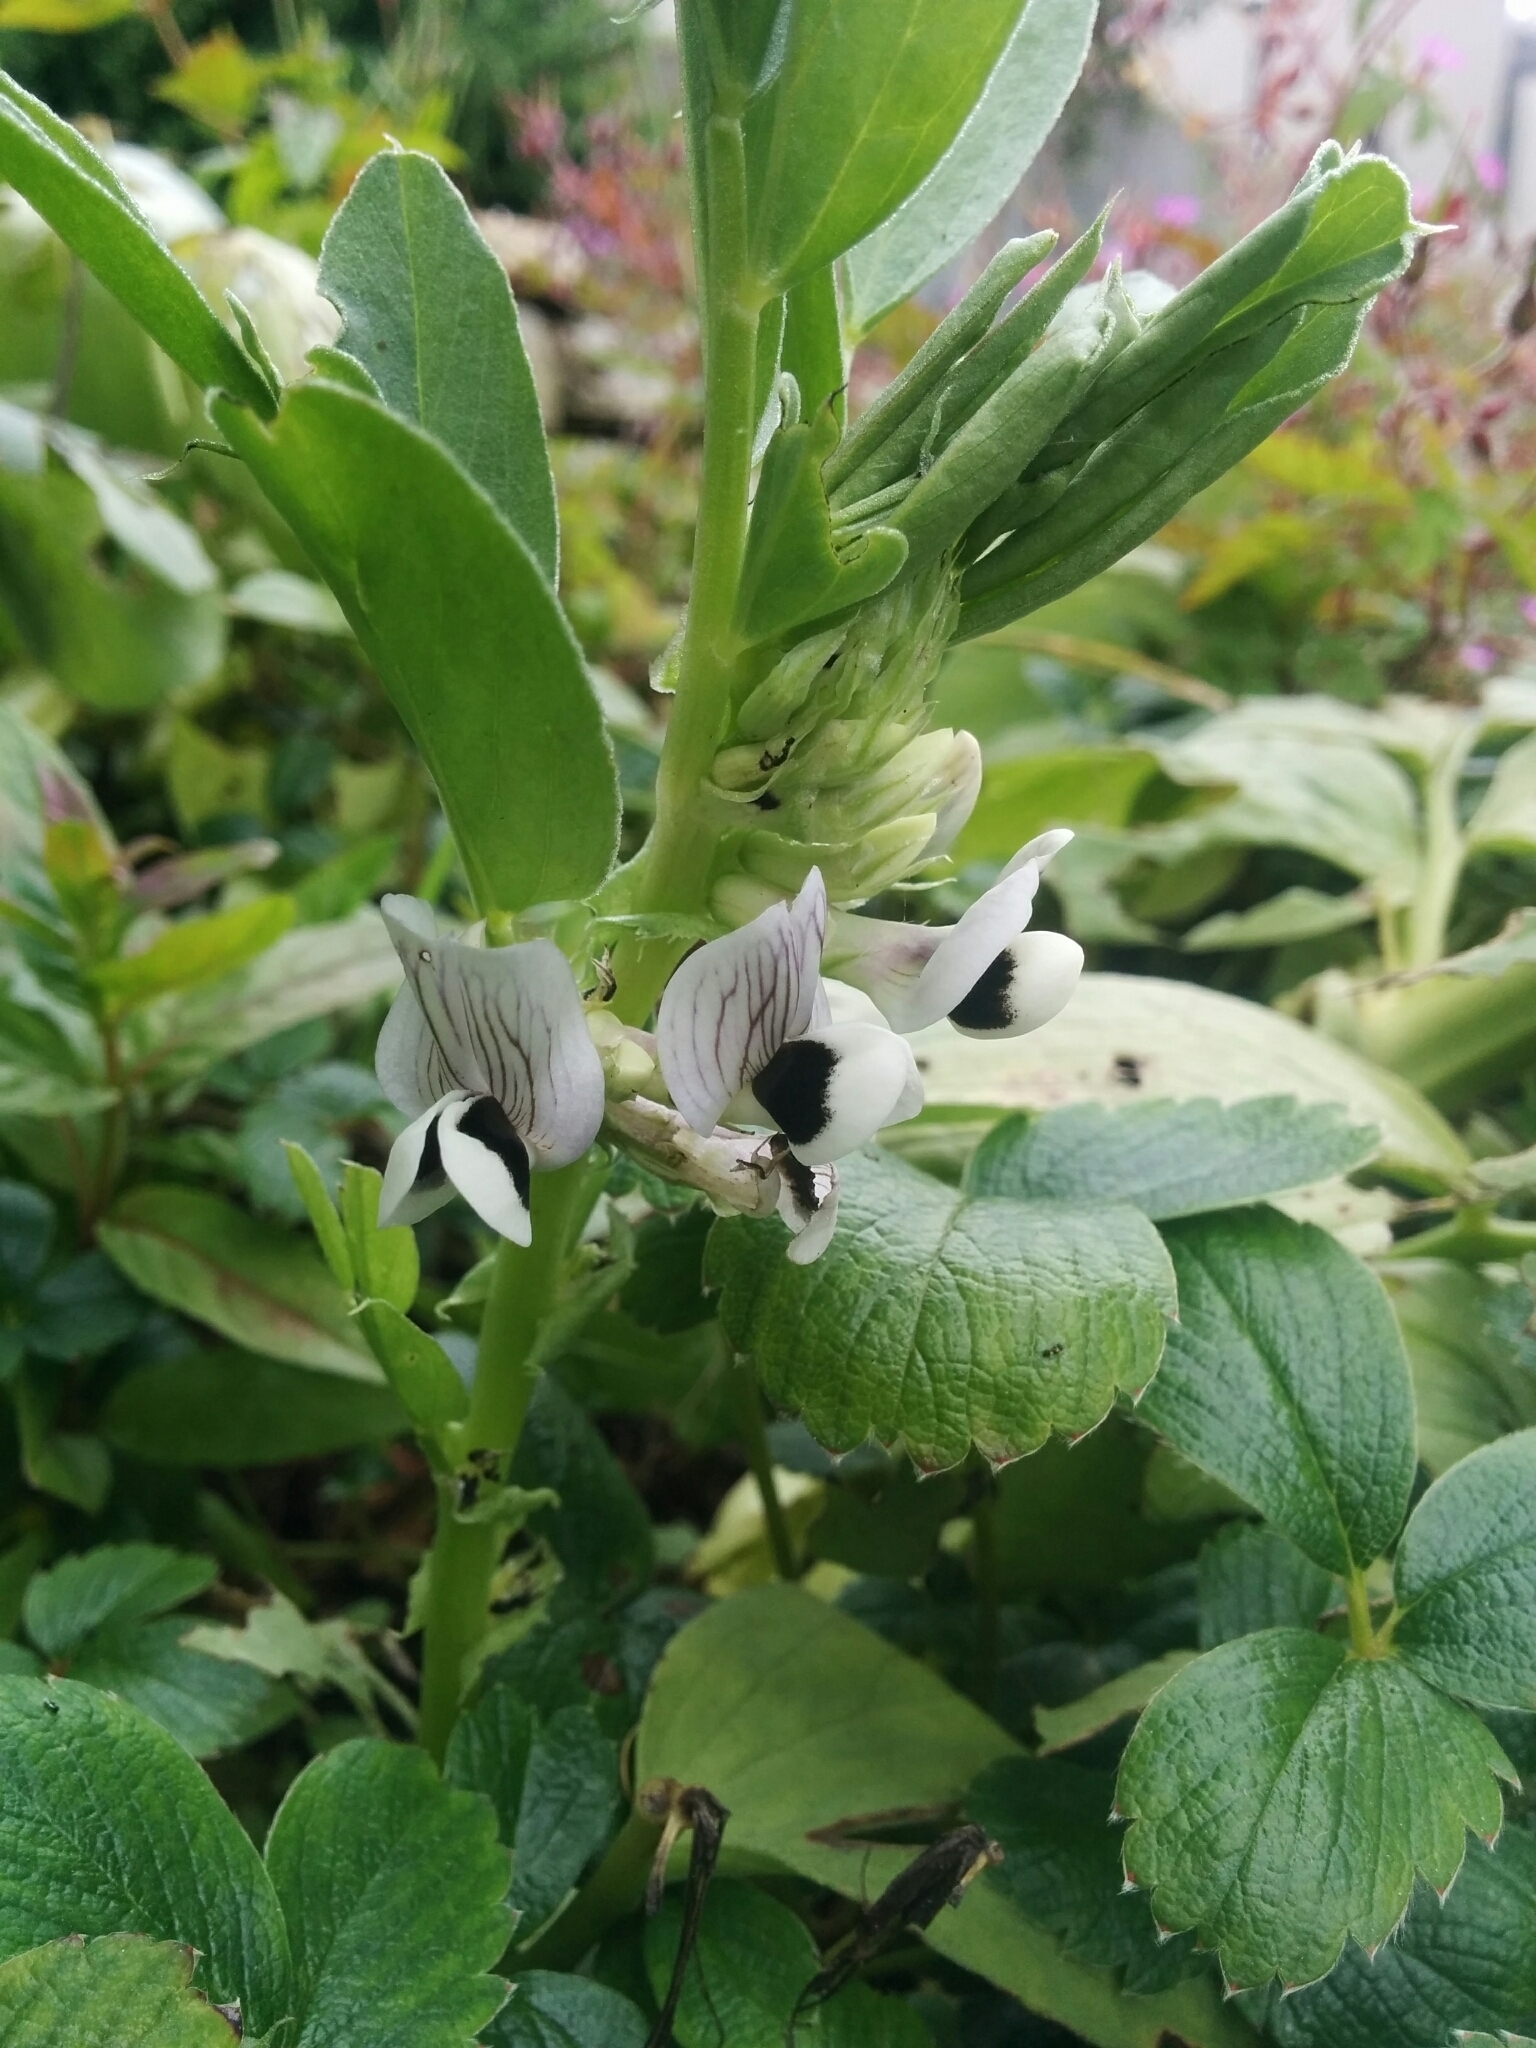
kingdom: Plantae
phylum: Tracheophyta
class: Magnoliopsida
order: Fabales
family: Fabaceae
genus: Vicia
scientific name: Vicia faba
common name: Broad bean
